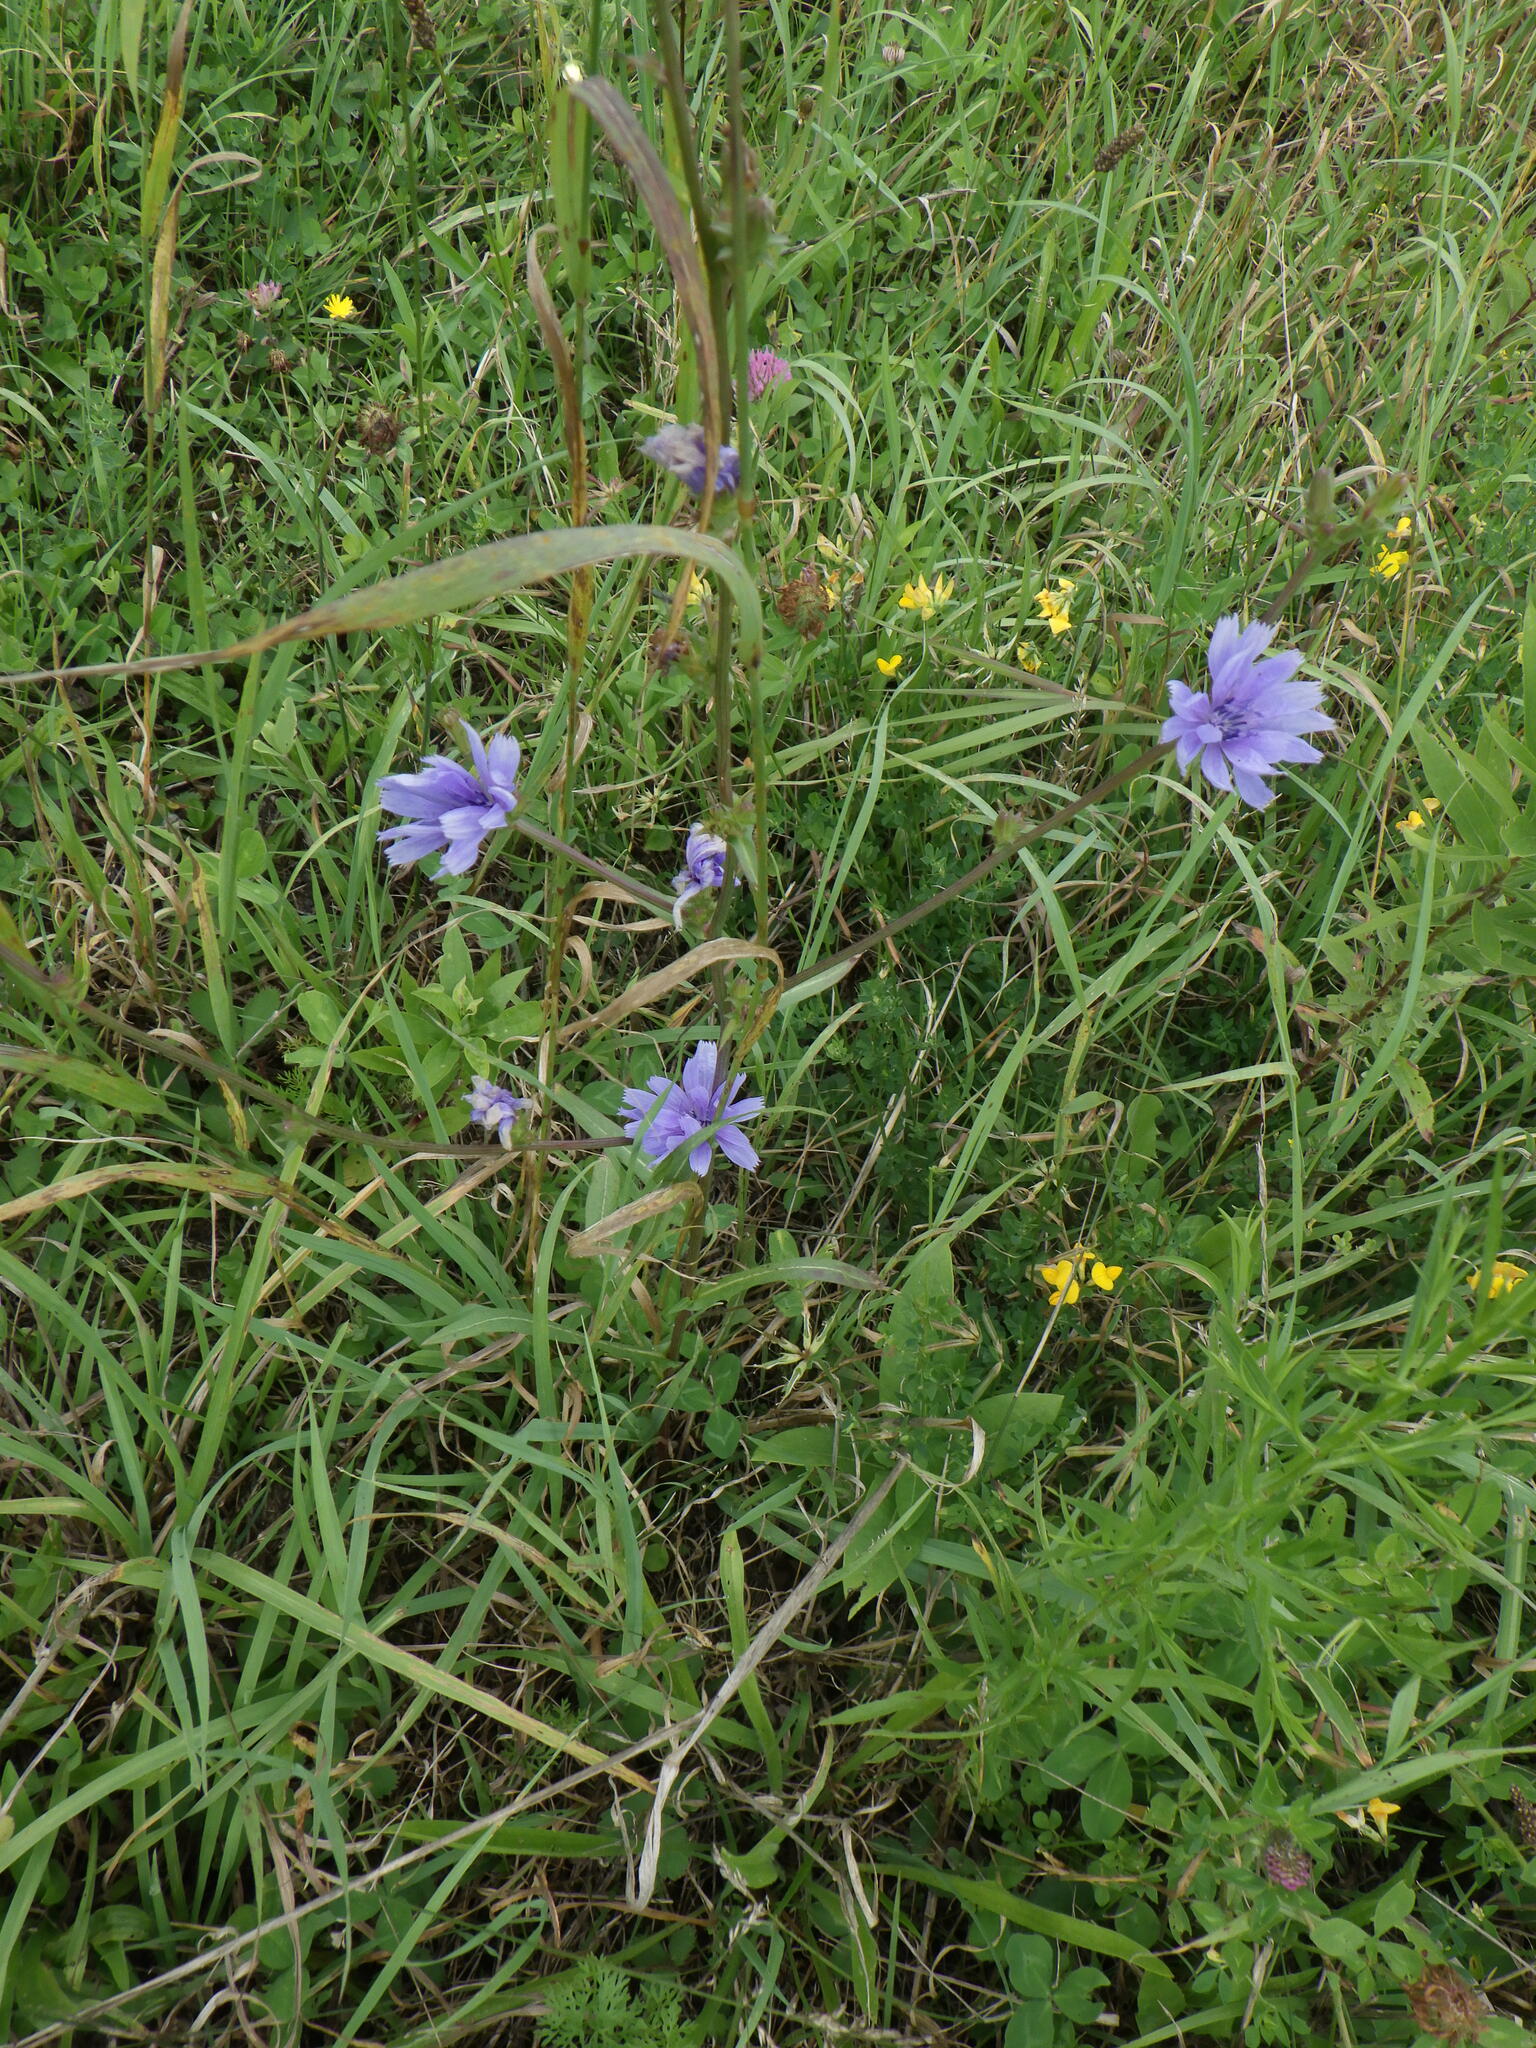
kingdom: Plantae
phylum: Tracheophyta
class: Magnoliopsida
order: Asterales
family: Asteraceae
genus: Cichorium
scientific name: Cichorium intybus
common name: Chicory
